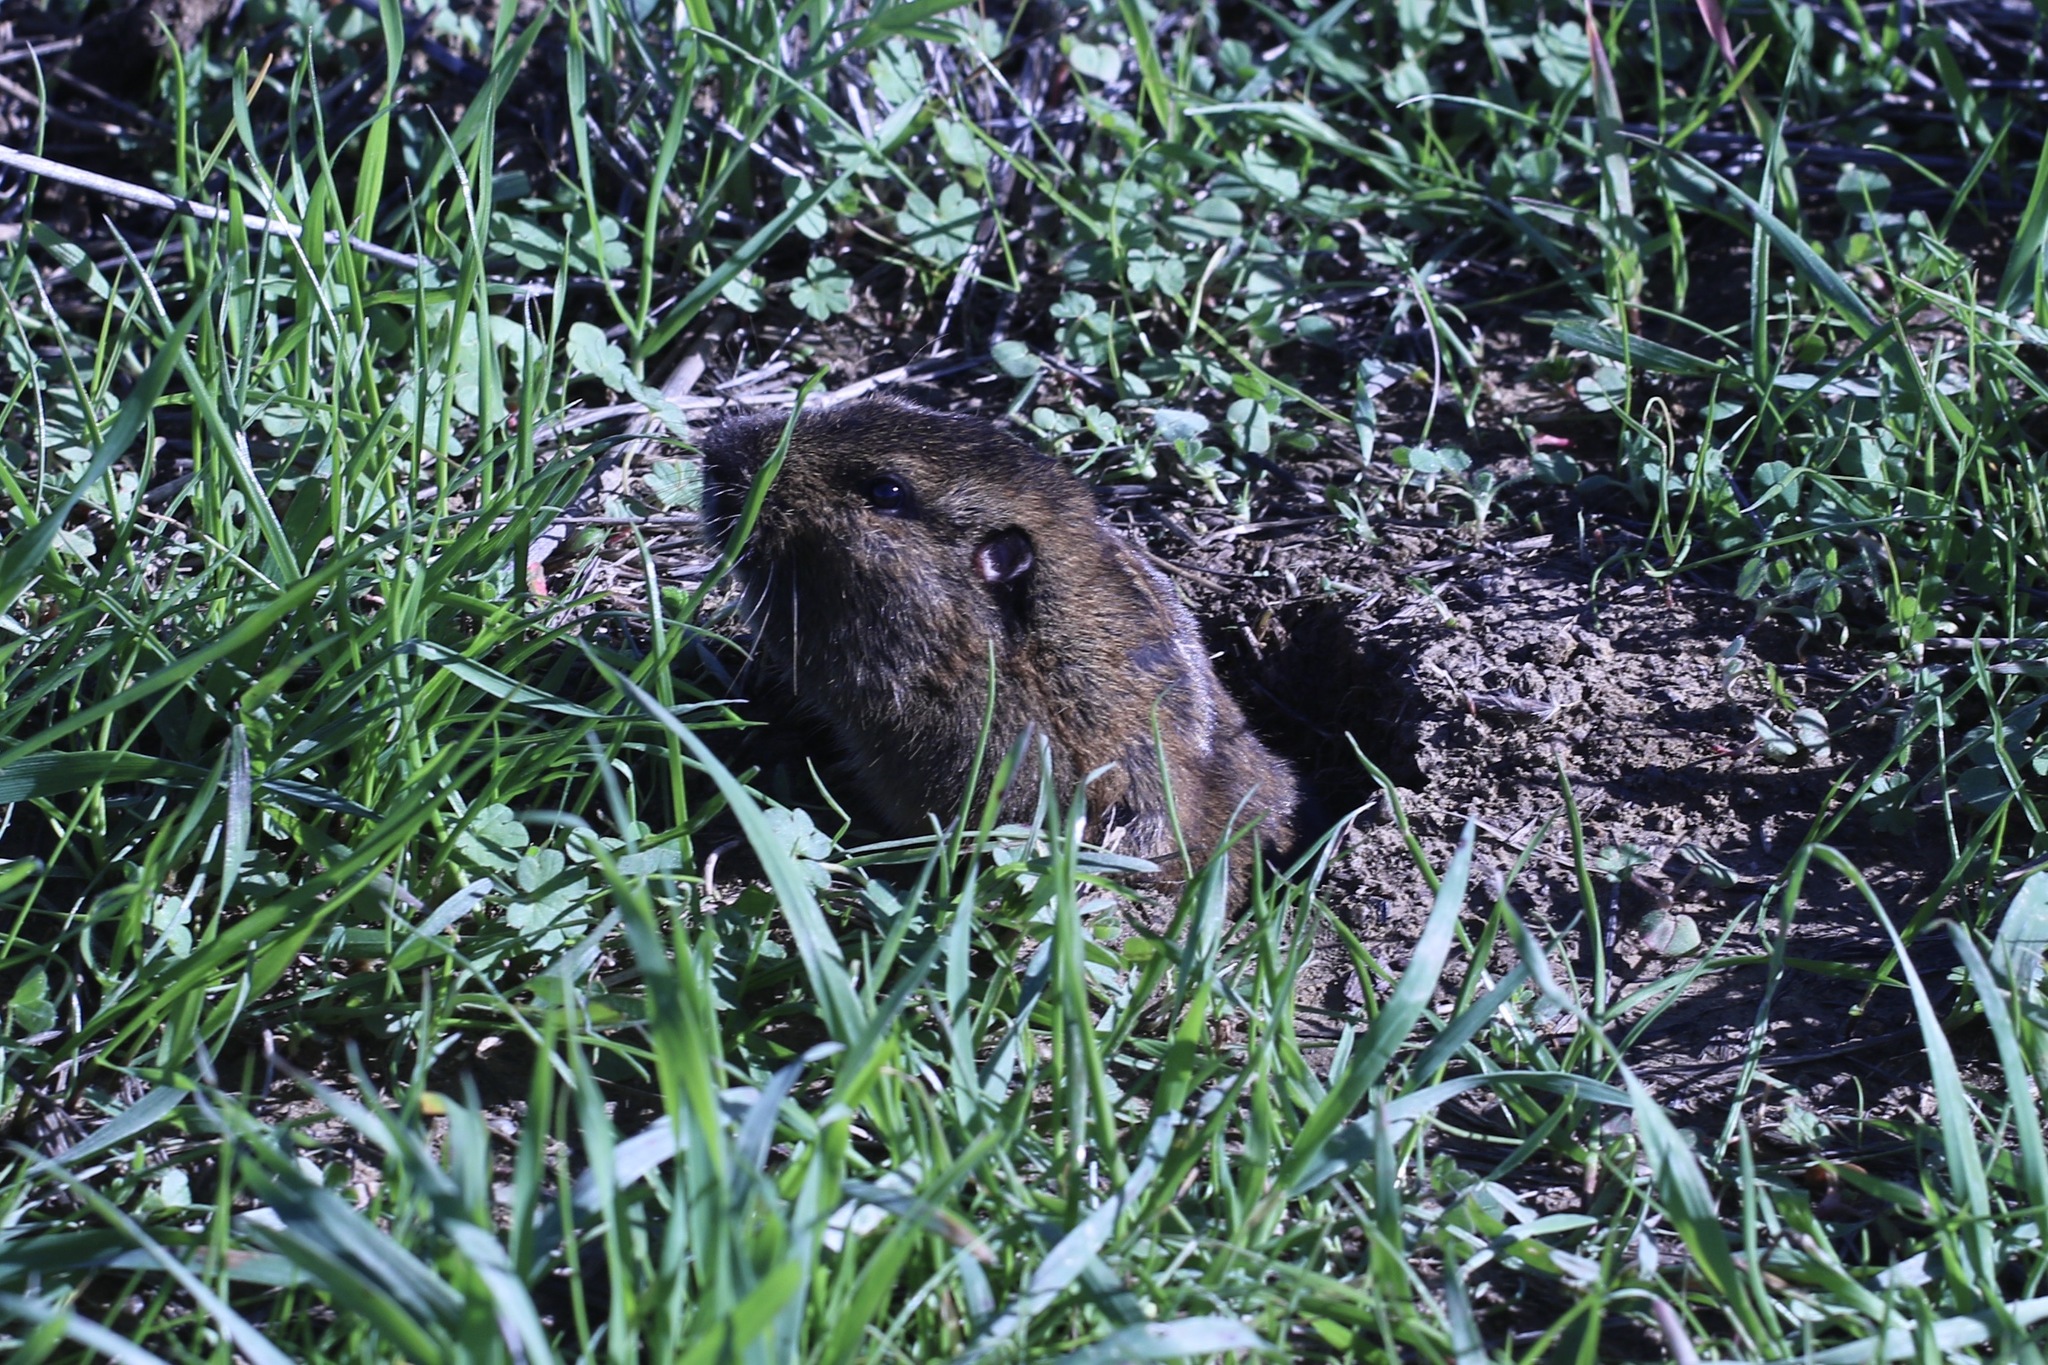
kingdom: Animalia
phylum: Chordata
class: Mammalia
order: Rodentia
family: Geomyidae
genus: Thomomys
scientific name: Thomomys bottae
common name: Botta's pocket gopher
